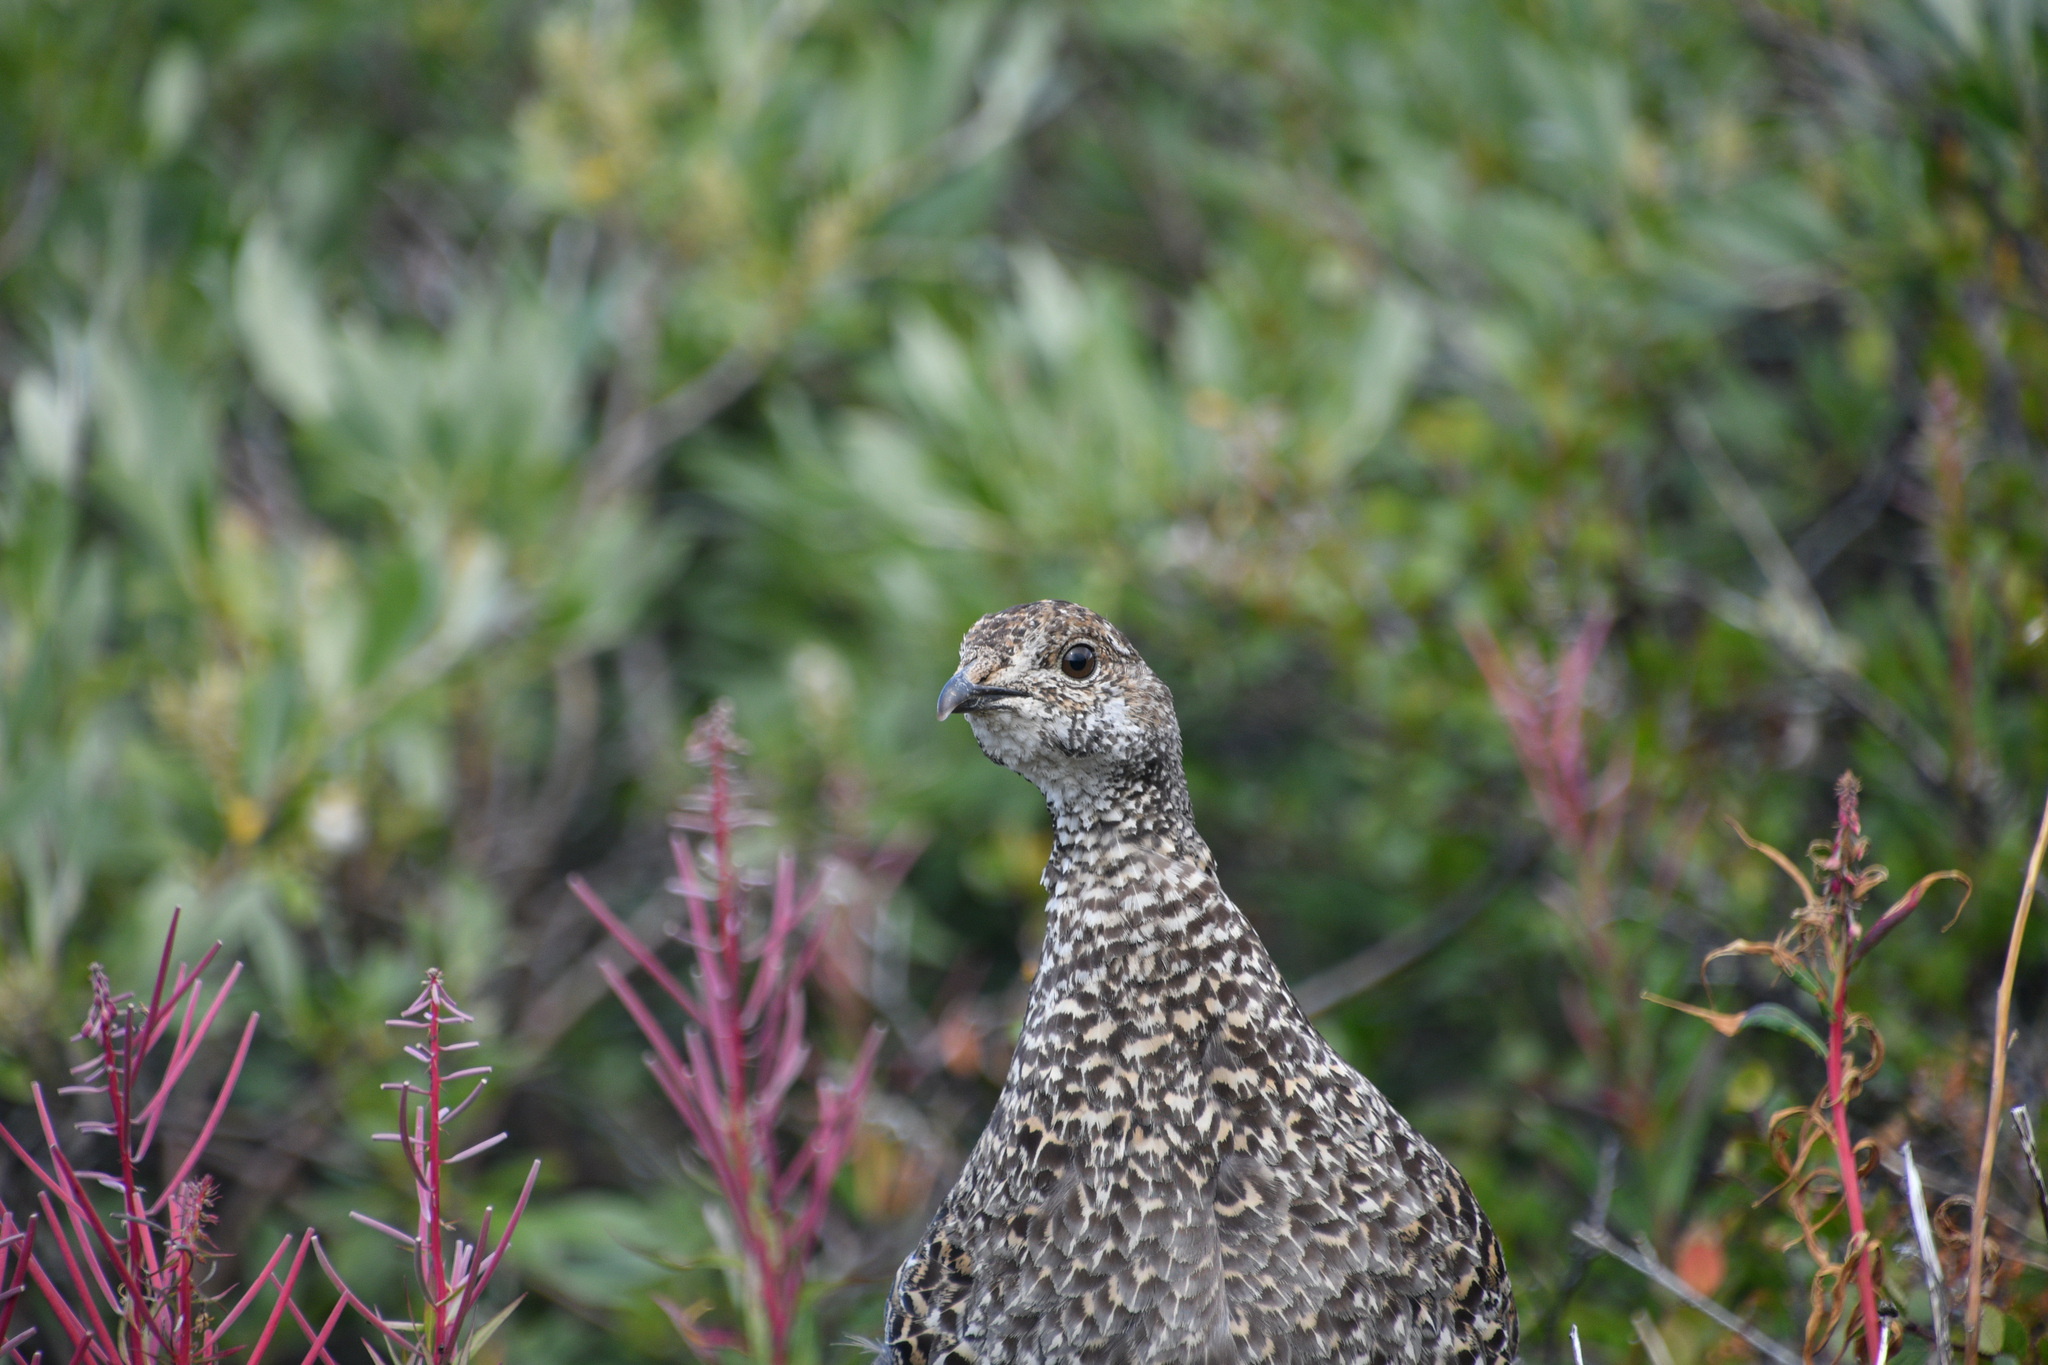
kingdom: Animalia
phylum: Chordata
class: Aves
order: Galliformes
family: Phasianidae
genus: Dendragapus
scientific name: Dendragapus obscurus
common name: Dusky grouse
